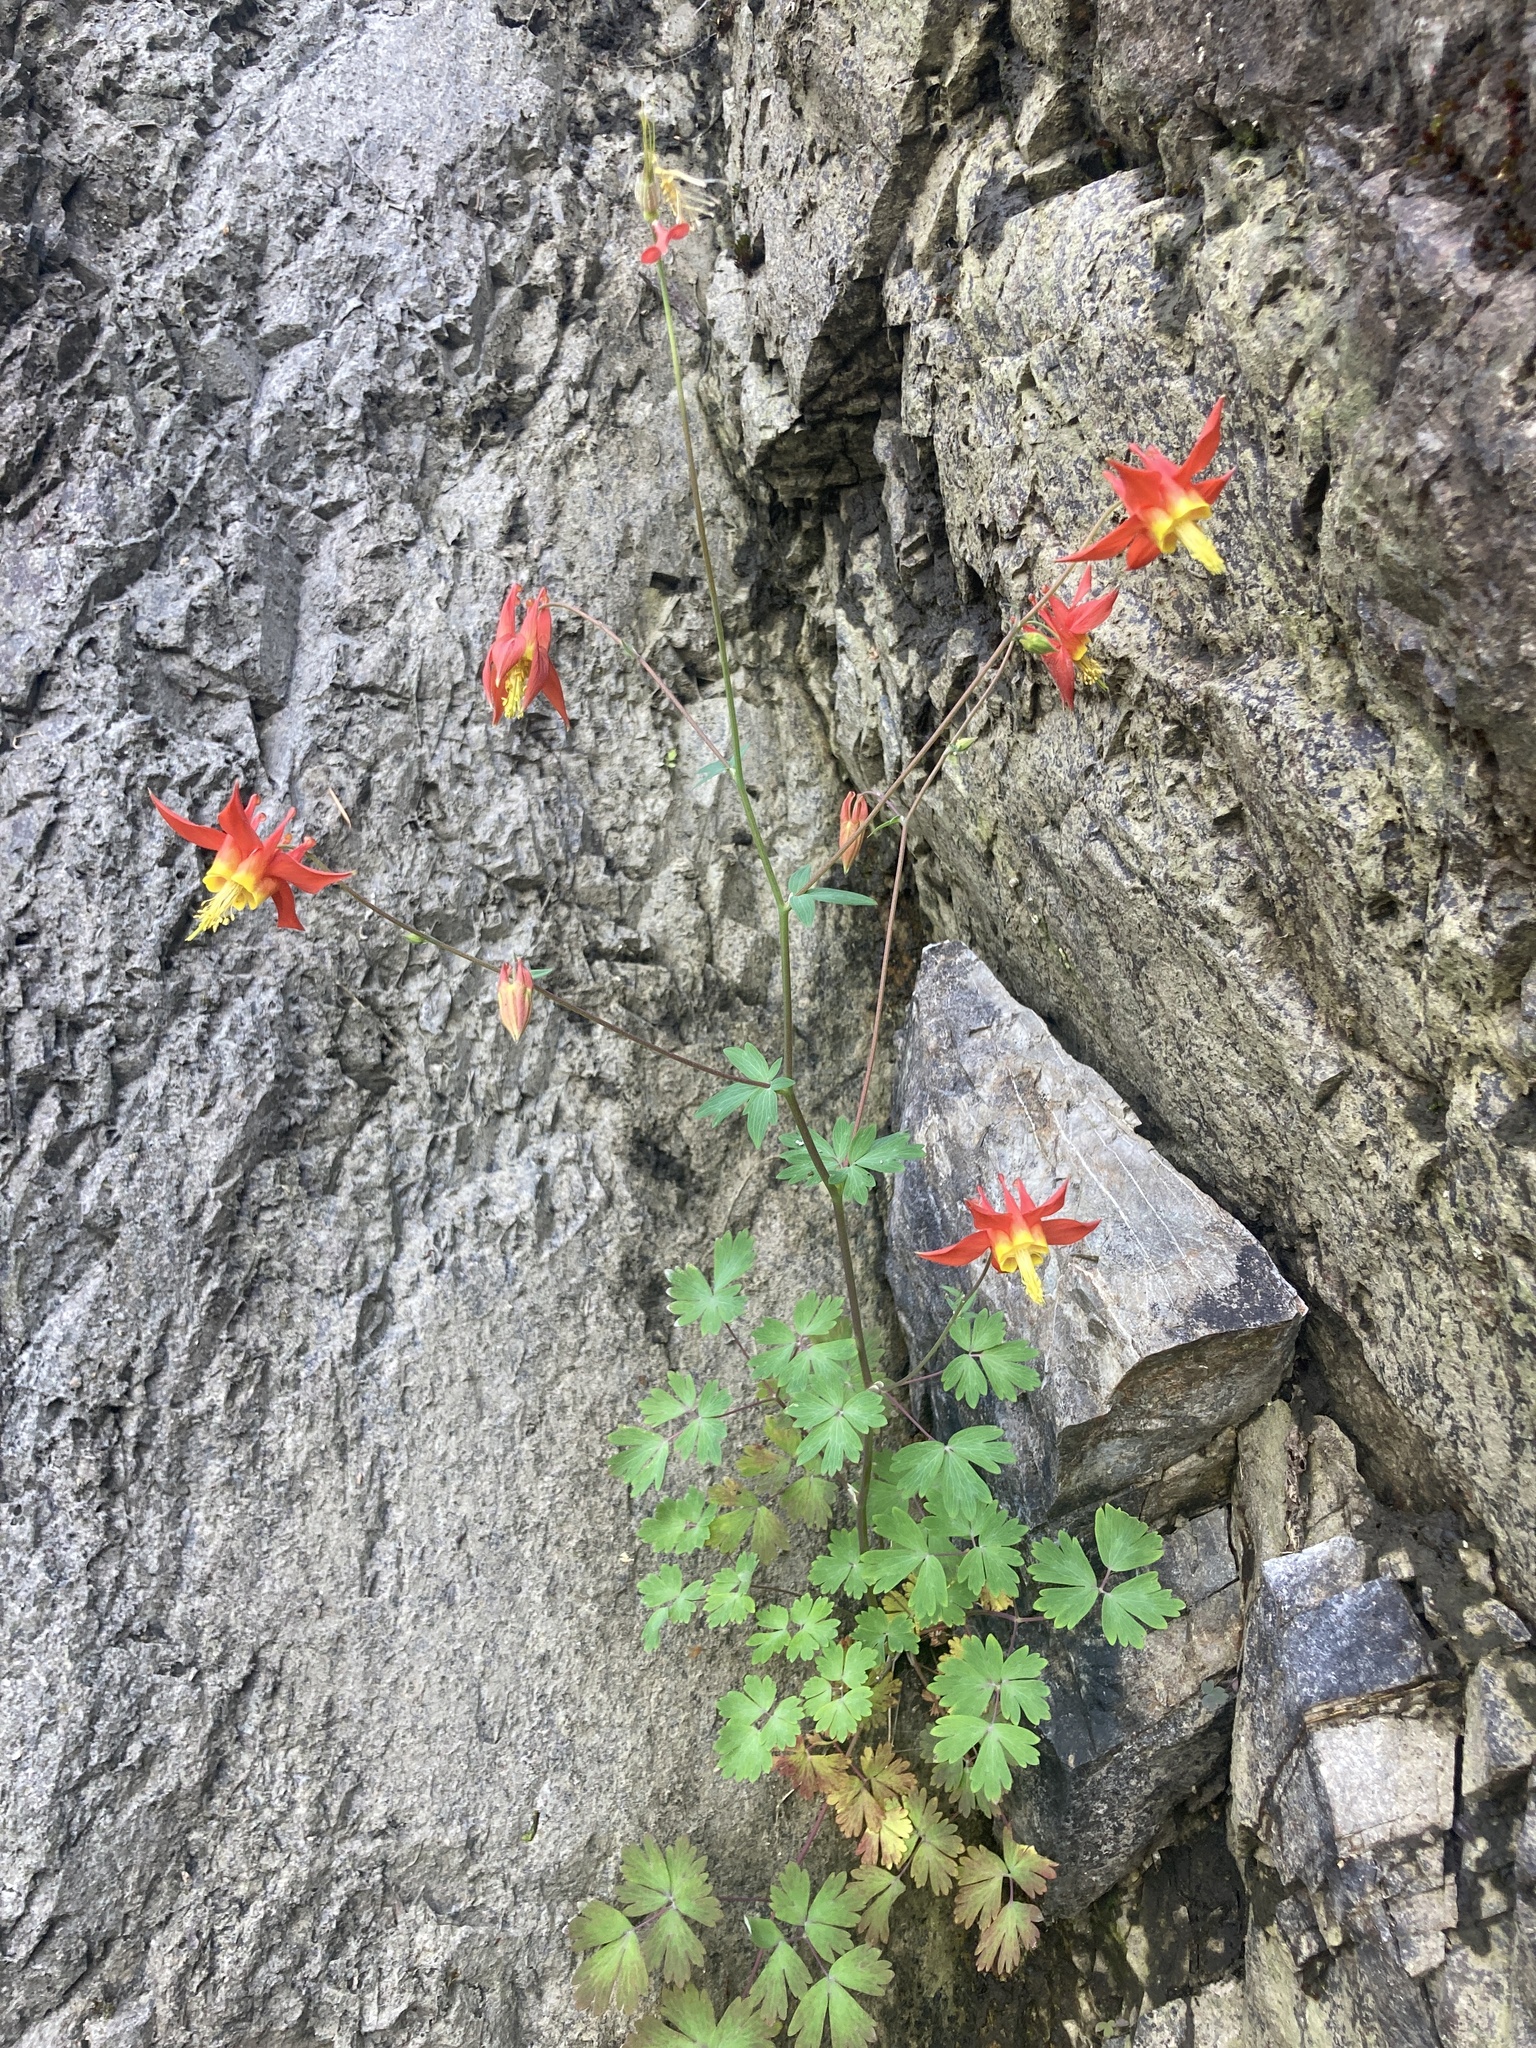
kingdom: Plantae
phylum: Tracheophyta
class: Magnoliopsida
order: Ranunculales
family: Ranunculaceae
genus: Aquilegia
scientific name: Aquilegia formosa
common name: Sitka columbine
